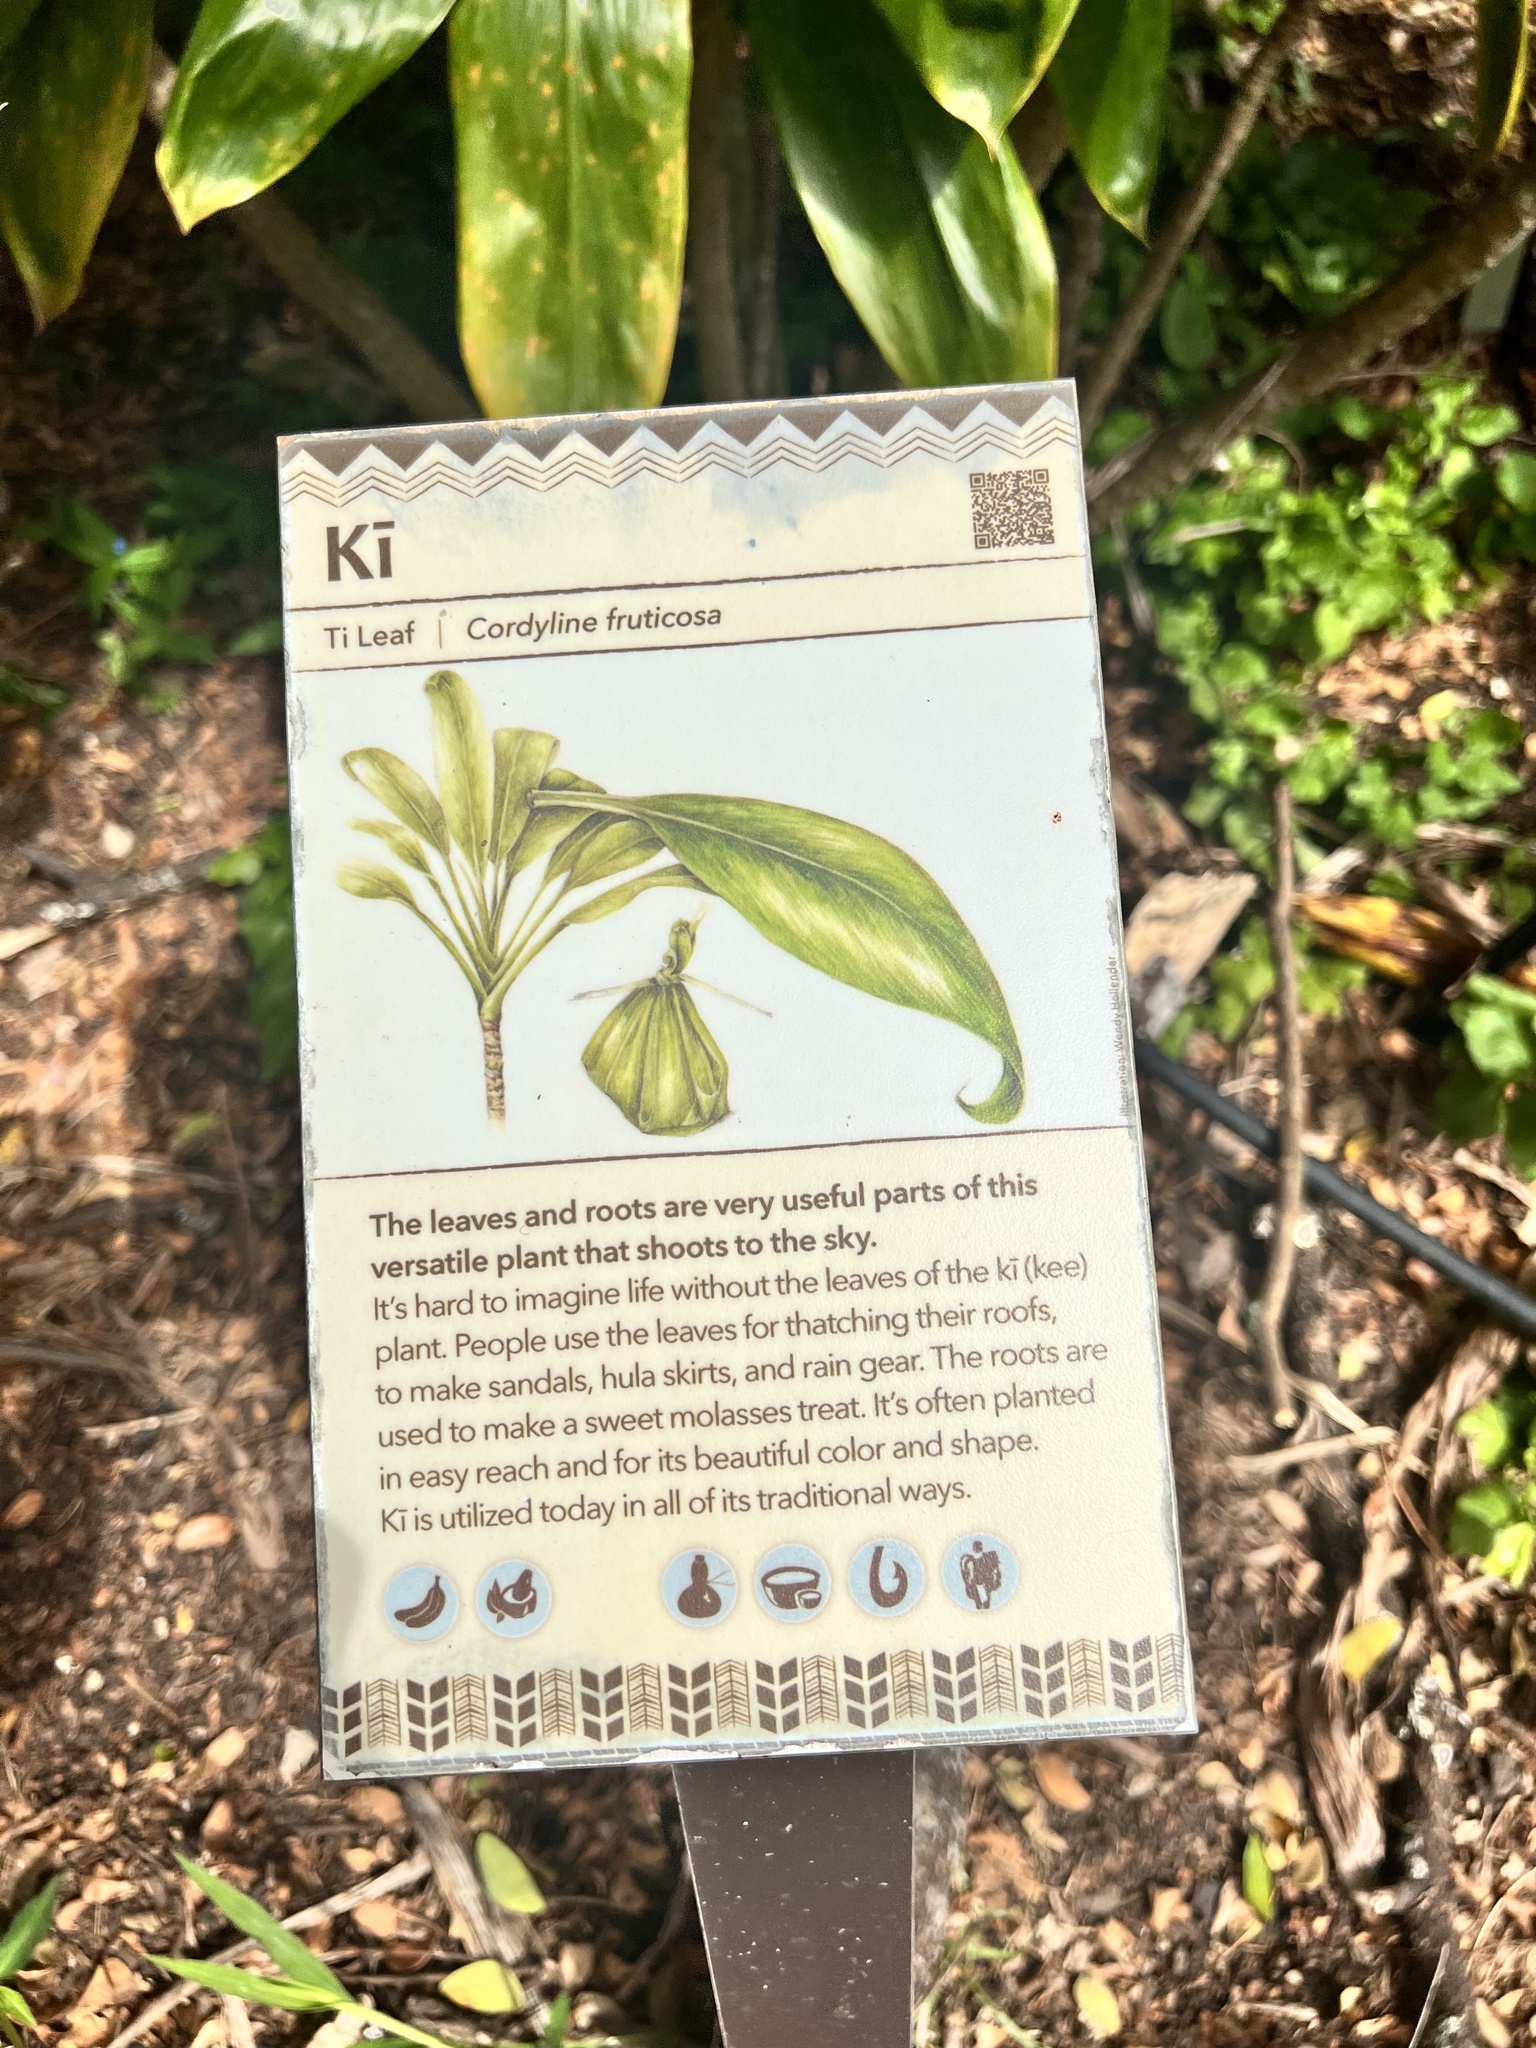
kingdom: Plantae
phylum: Tracheophyta
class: Liliopsida
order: Asparagales
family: Asparagaceae
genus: Cordyline
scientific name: Cordyline fruticosa
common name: Good-luck-plant
